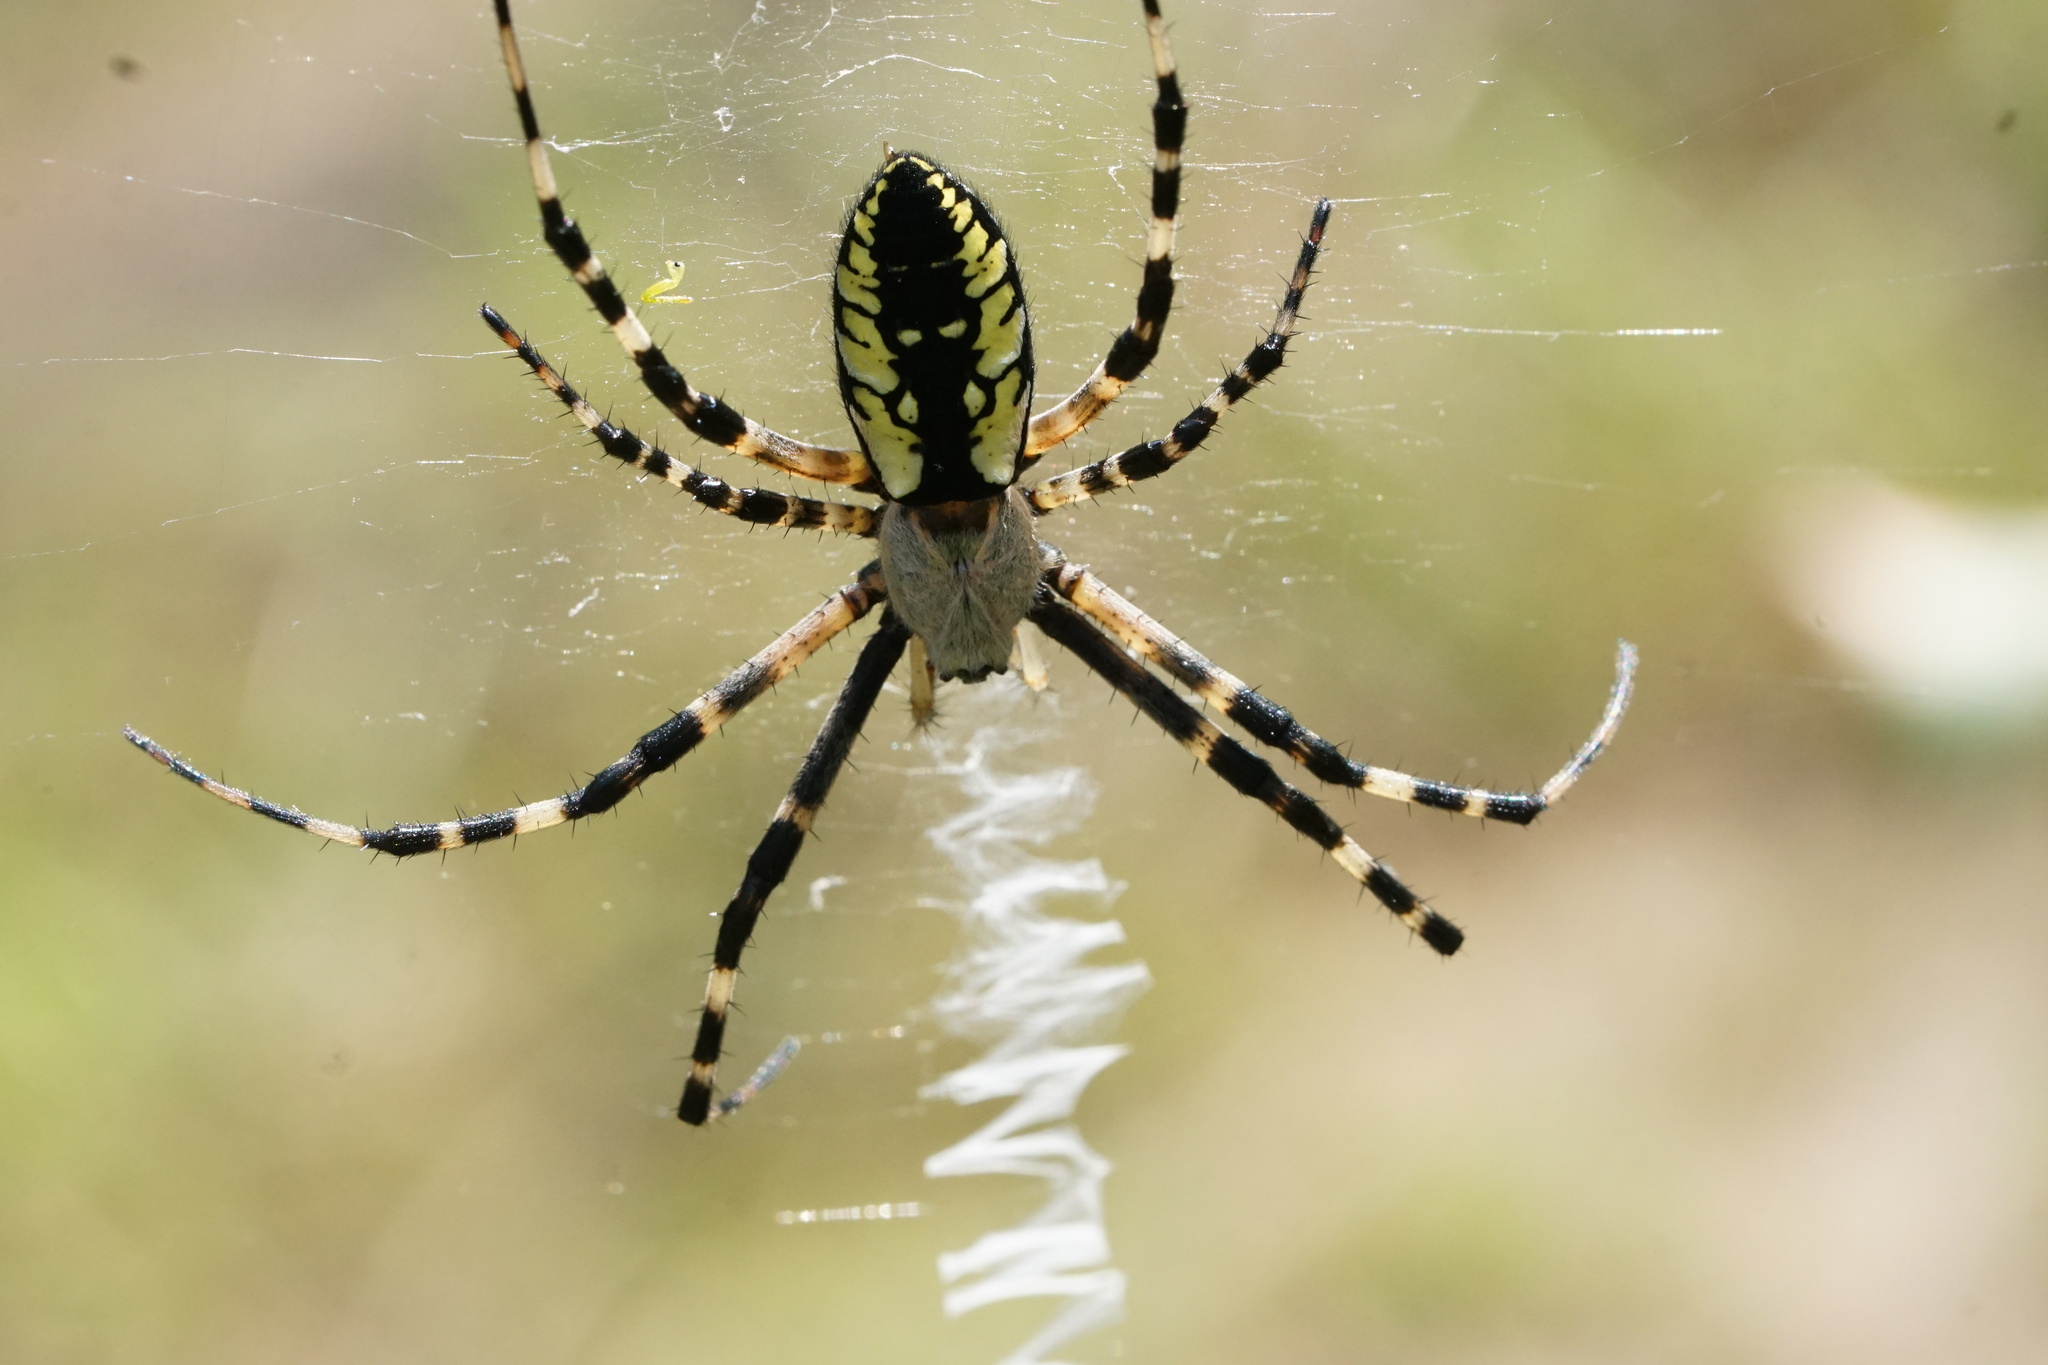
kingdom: Animalia
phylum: Arthropoda
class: Arachnida
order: Araneae
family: Araneidae
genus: Argiope
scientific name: Argiope aurantia
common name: Orb weavers
